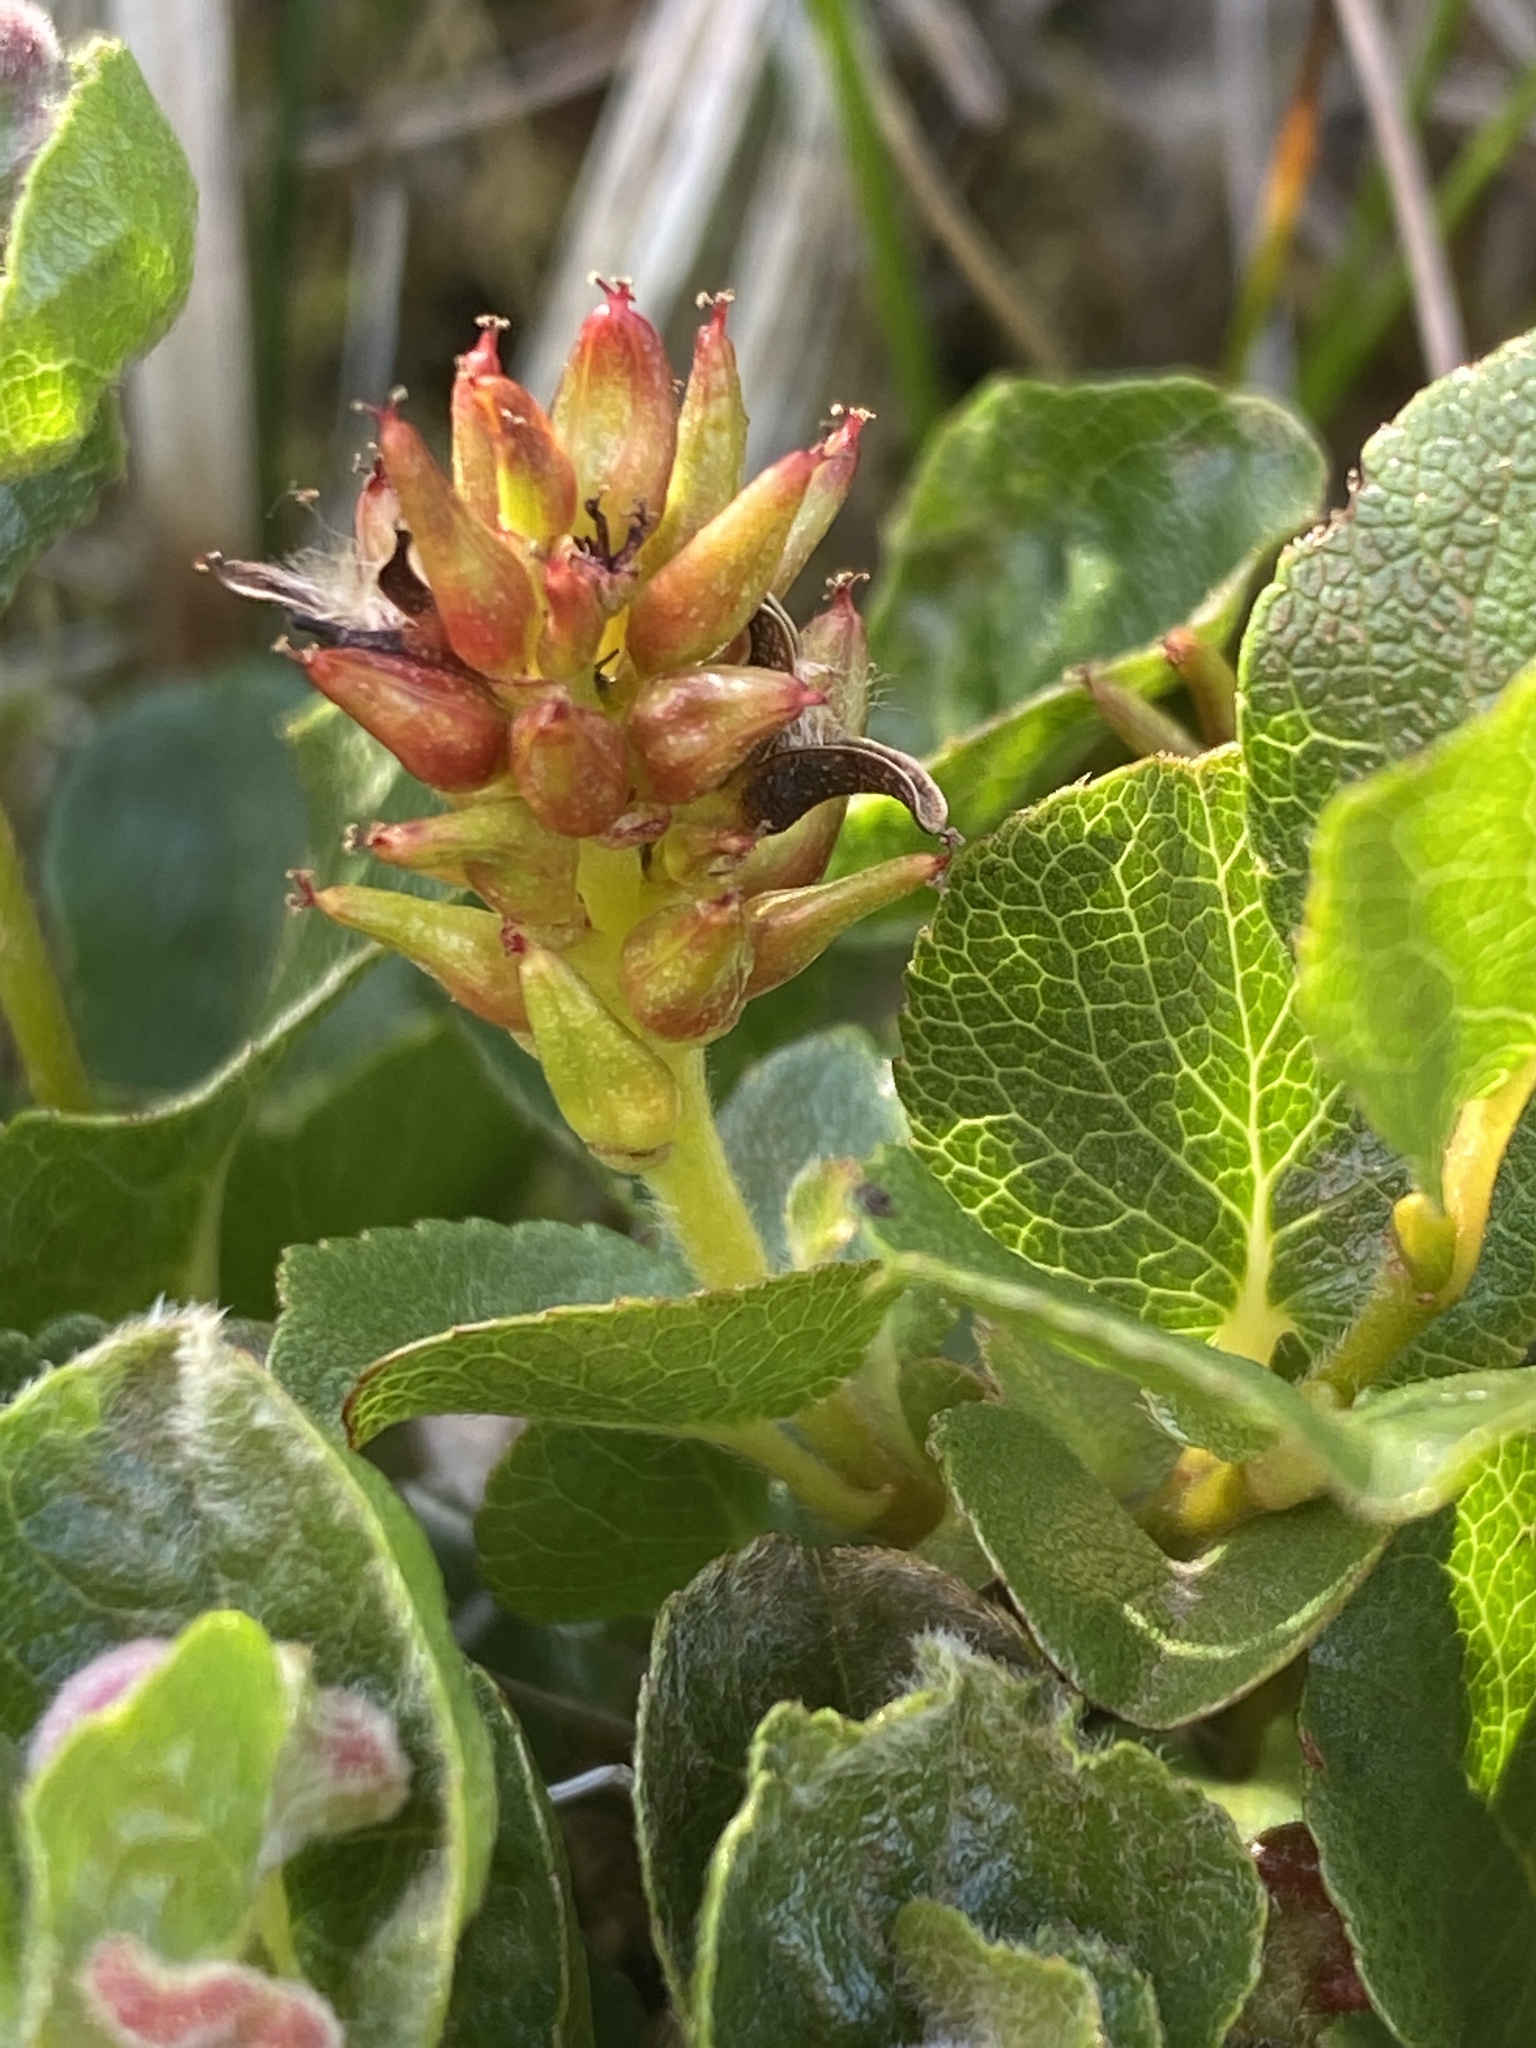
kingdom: Plantae
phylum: Tracheophyta
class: Magnoliopsida
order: Malpighiales
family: Salicaceae
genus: Salix
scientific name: Salix herbacea
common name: Dwarf willow
